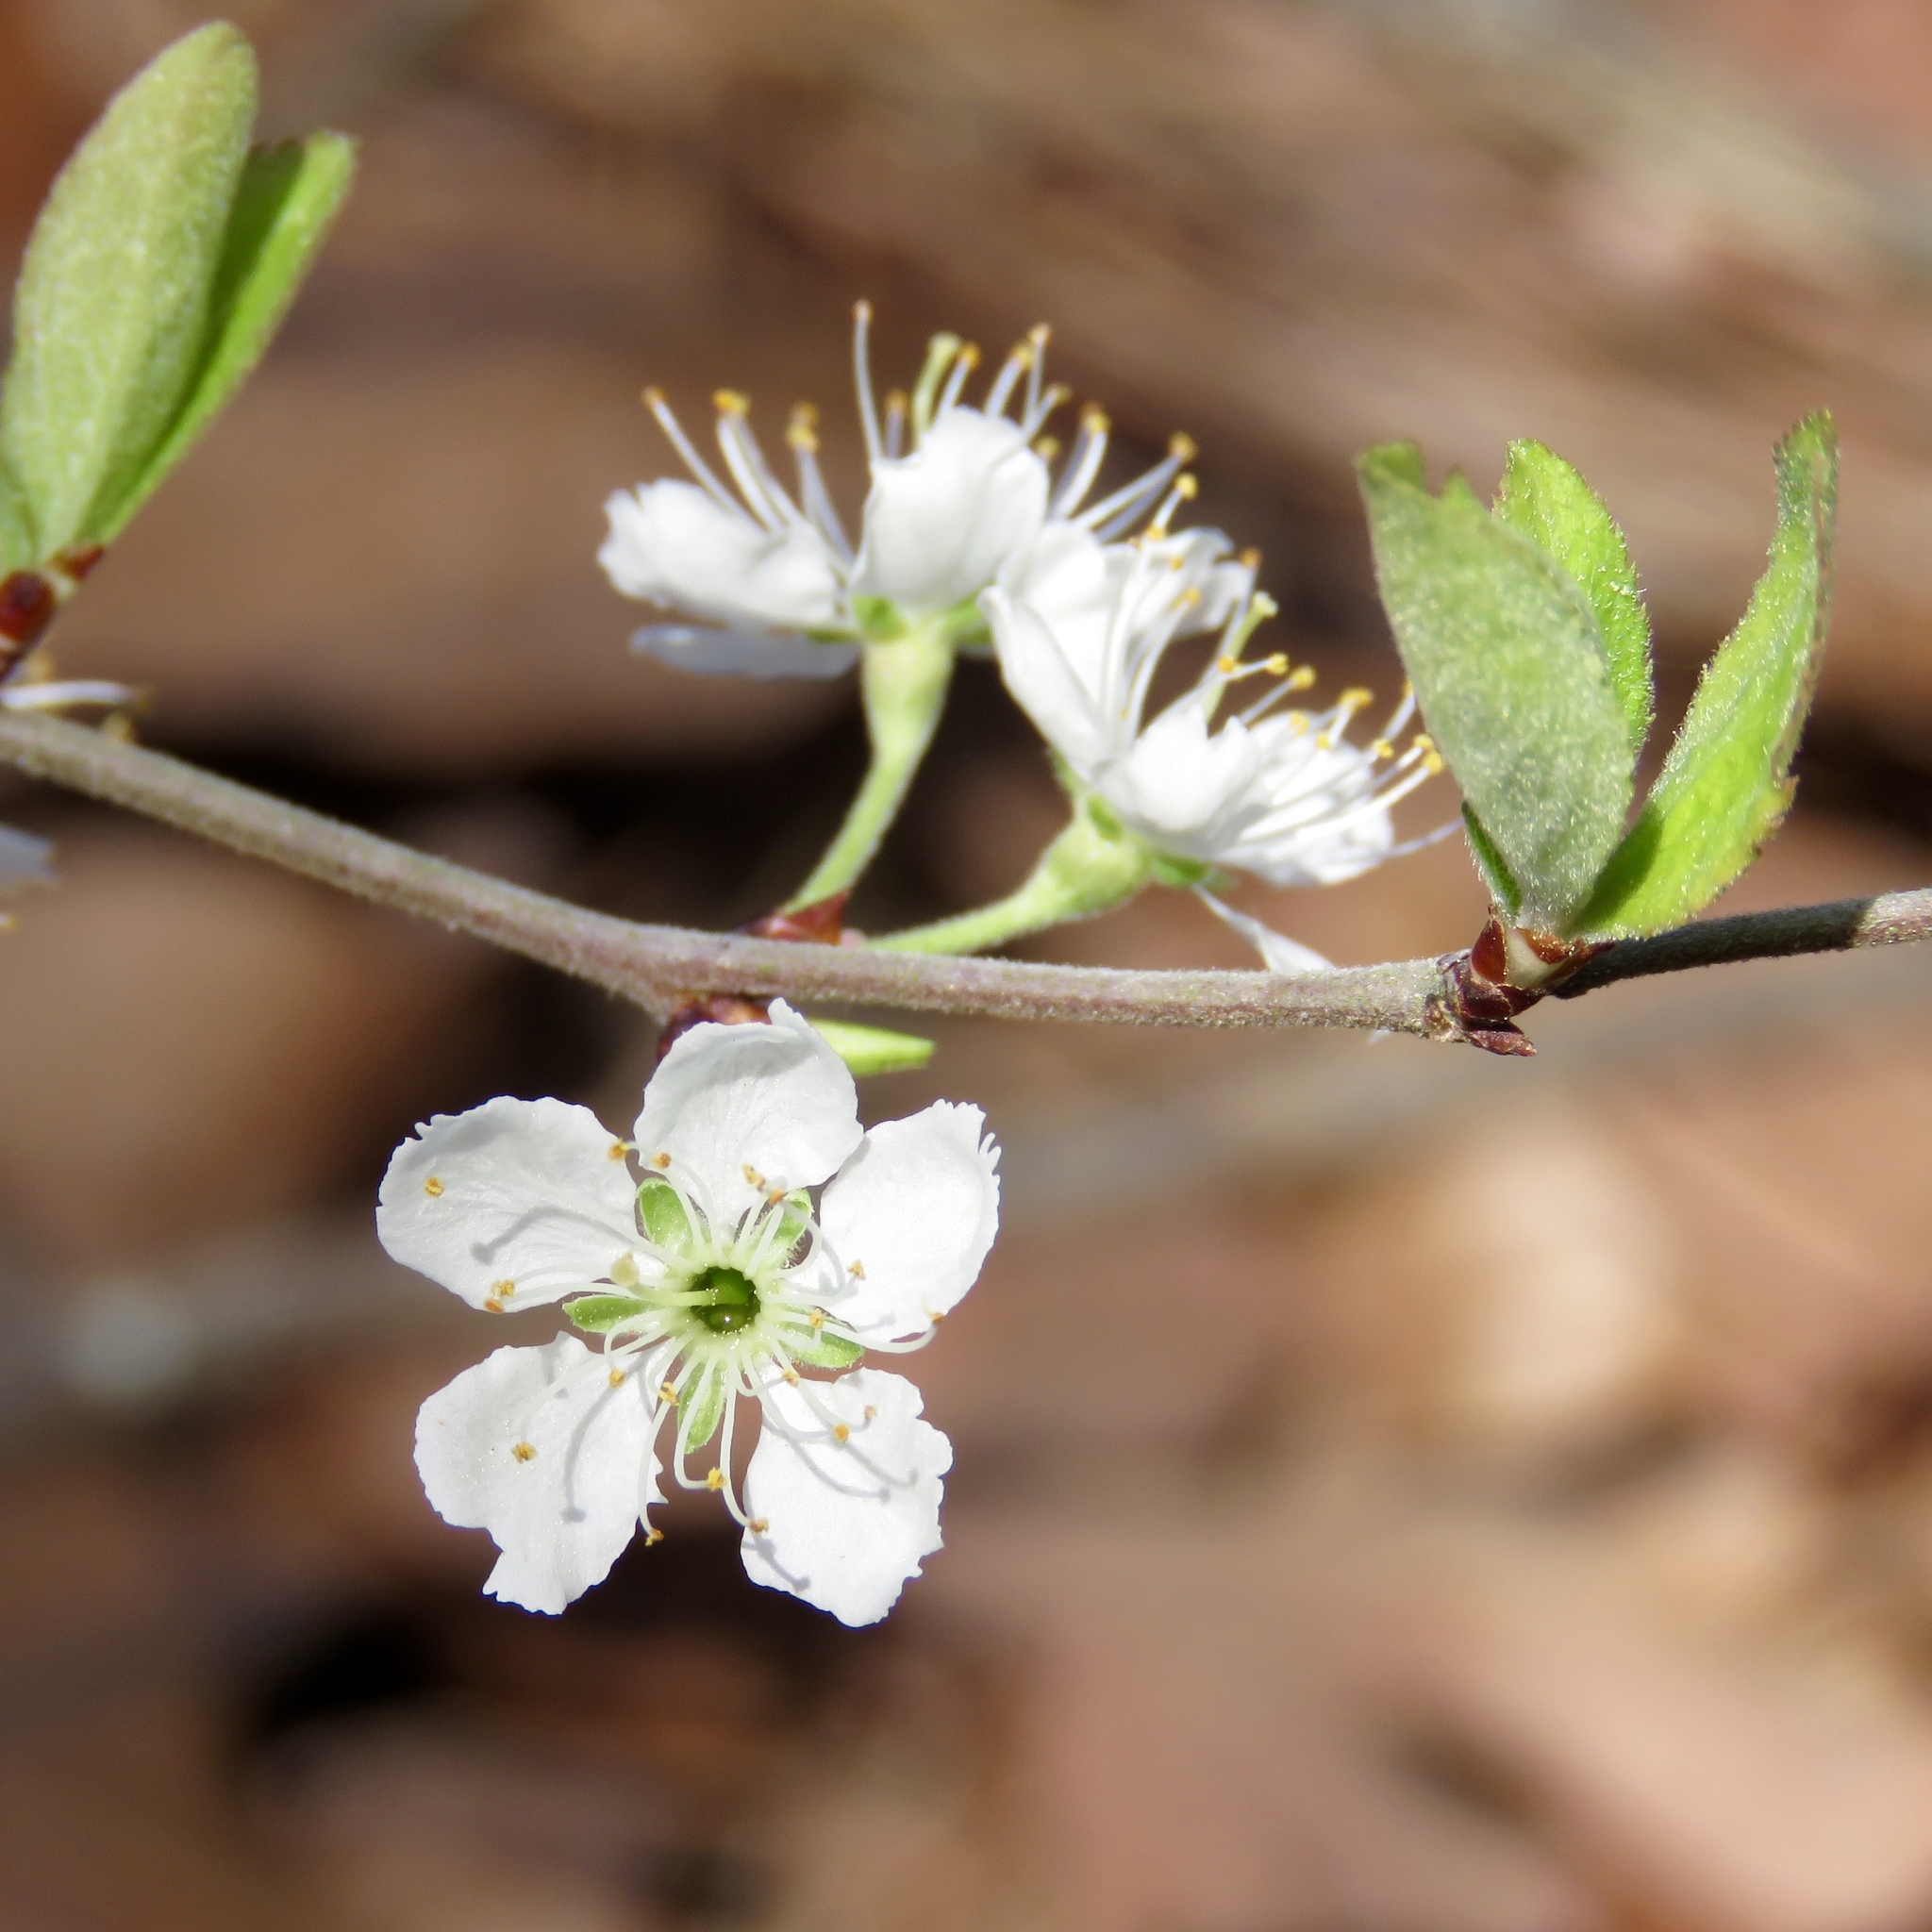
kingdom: Plantae
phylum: Tracheophyta
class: Magnoliopsida
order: Rosales
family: Rosaceae
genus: Prunus
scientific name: Prunus gracilis
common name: Oklahoma plum
